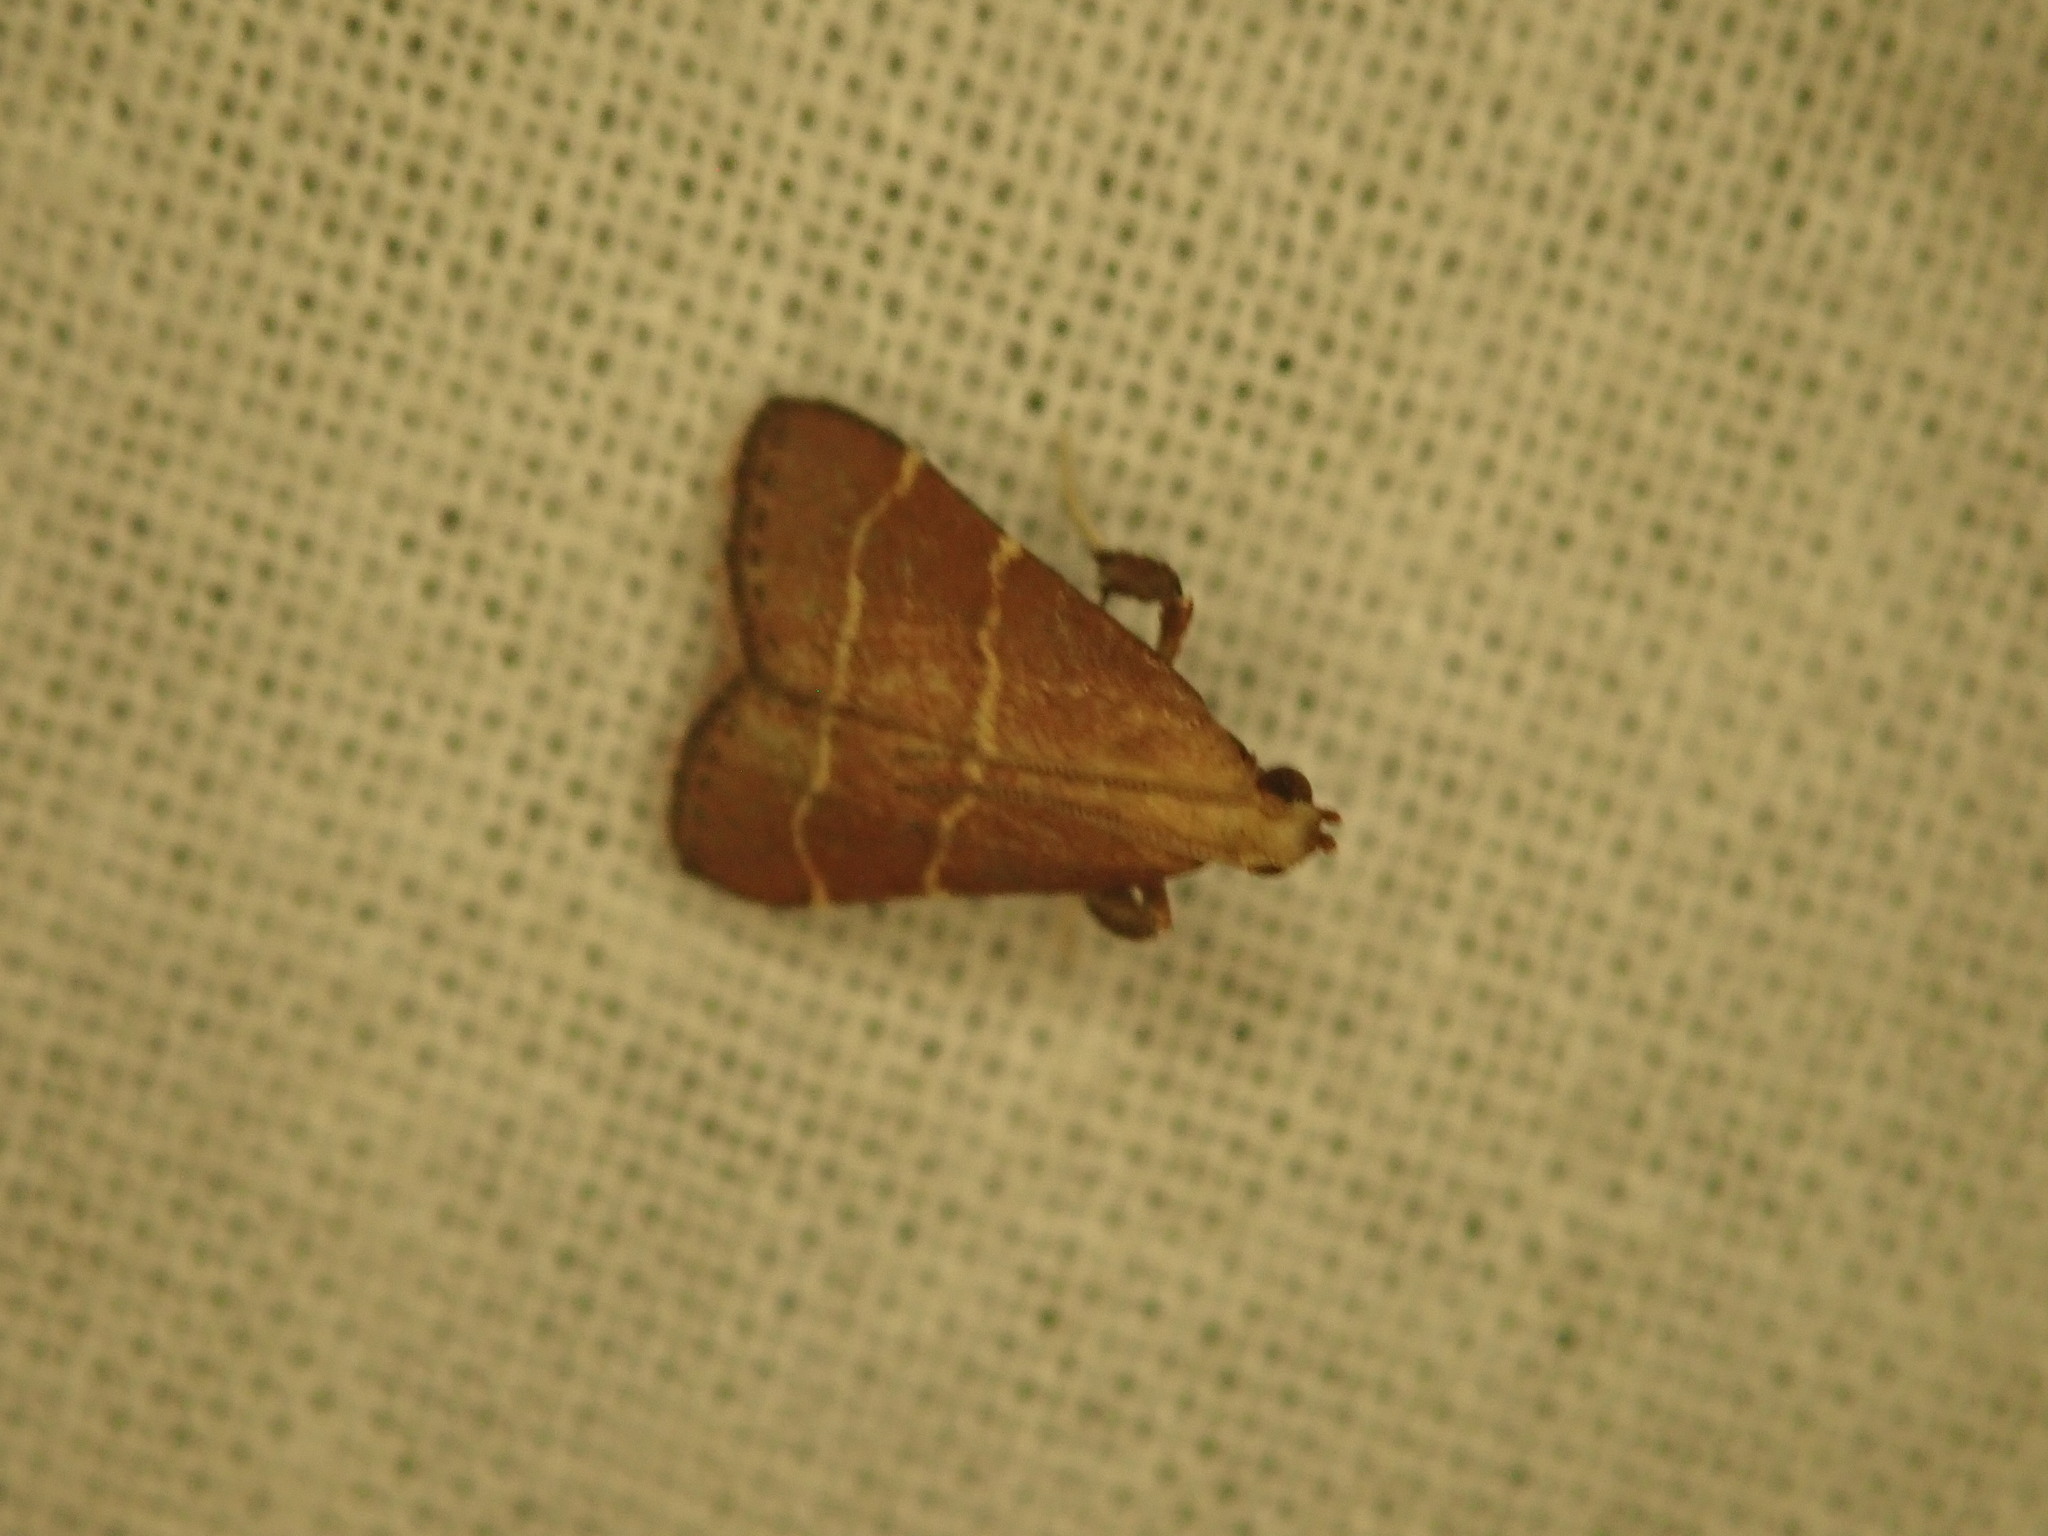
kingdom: Animalia
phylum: Arthropoda
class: Insecta
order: Lepidoptera
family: Pyralidae
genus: Arta
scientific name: Arta statalis
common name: Posturing arta moth
